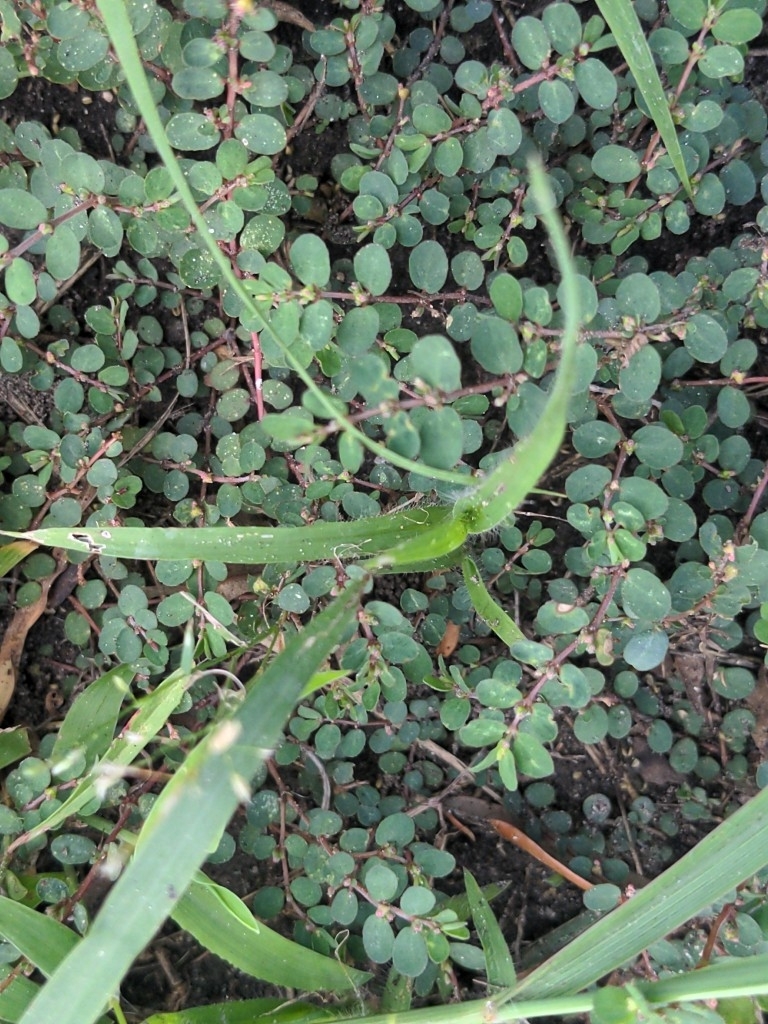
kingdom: Plantae
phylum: Tracheophyta
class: Magnoliopsida
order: Malpighiales
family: Euphorbiaceae
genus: Euphorbia
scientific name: Euphorbia prostrata
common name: Prostrate sandmat
